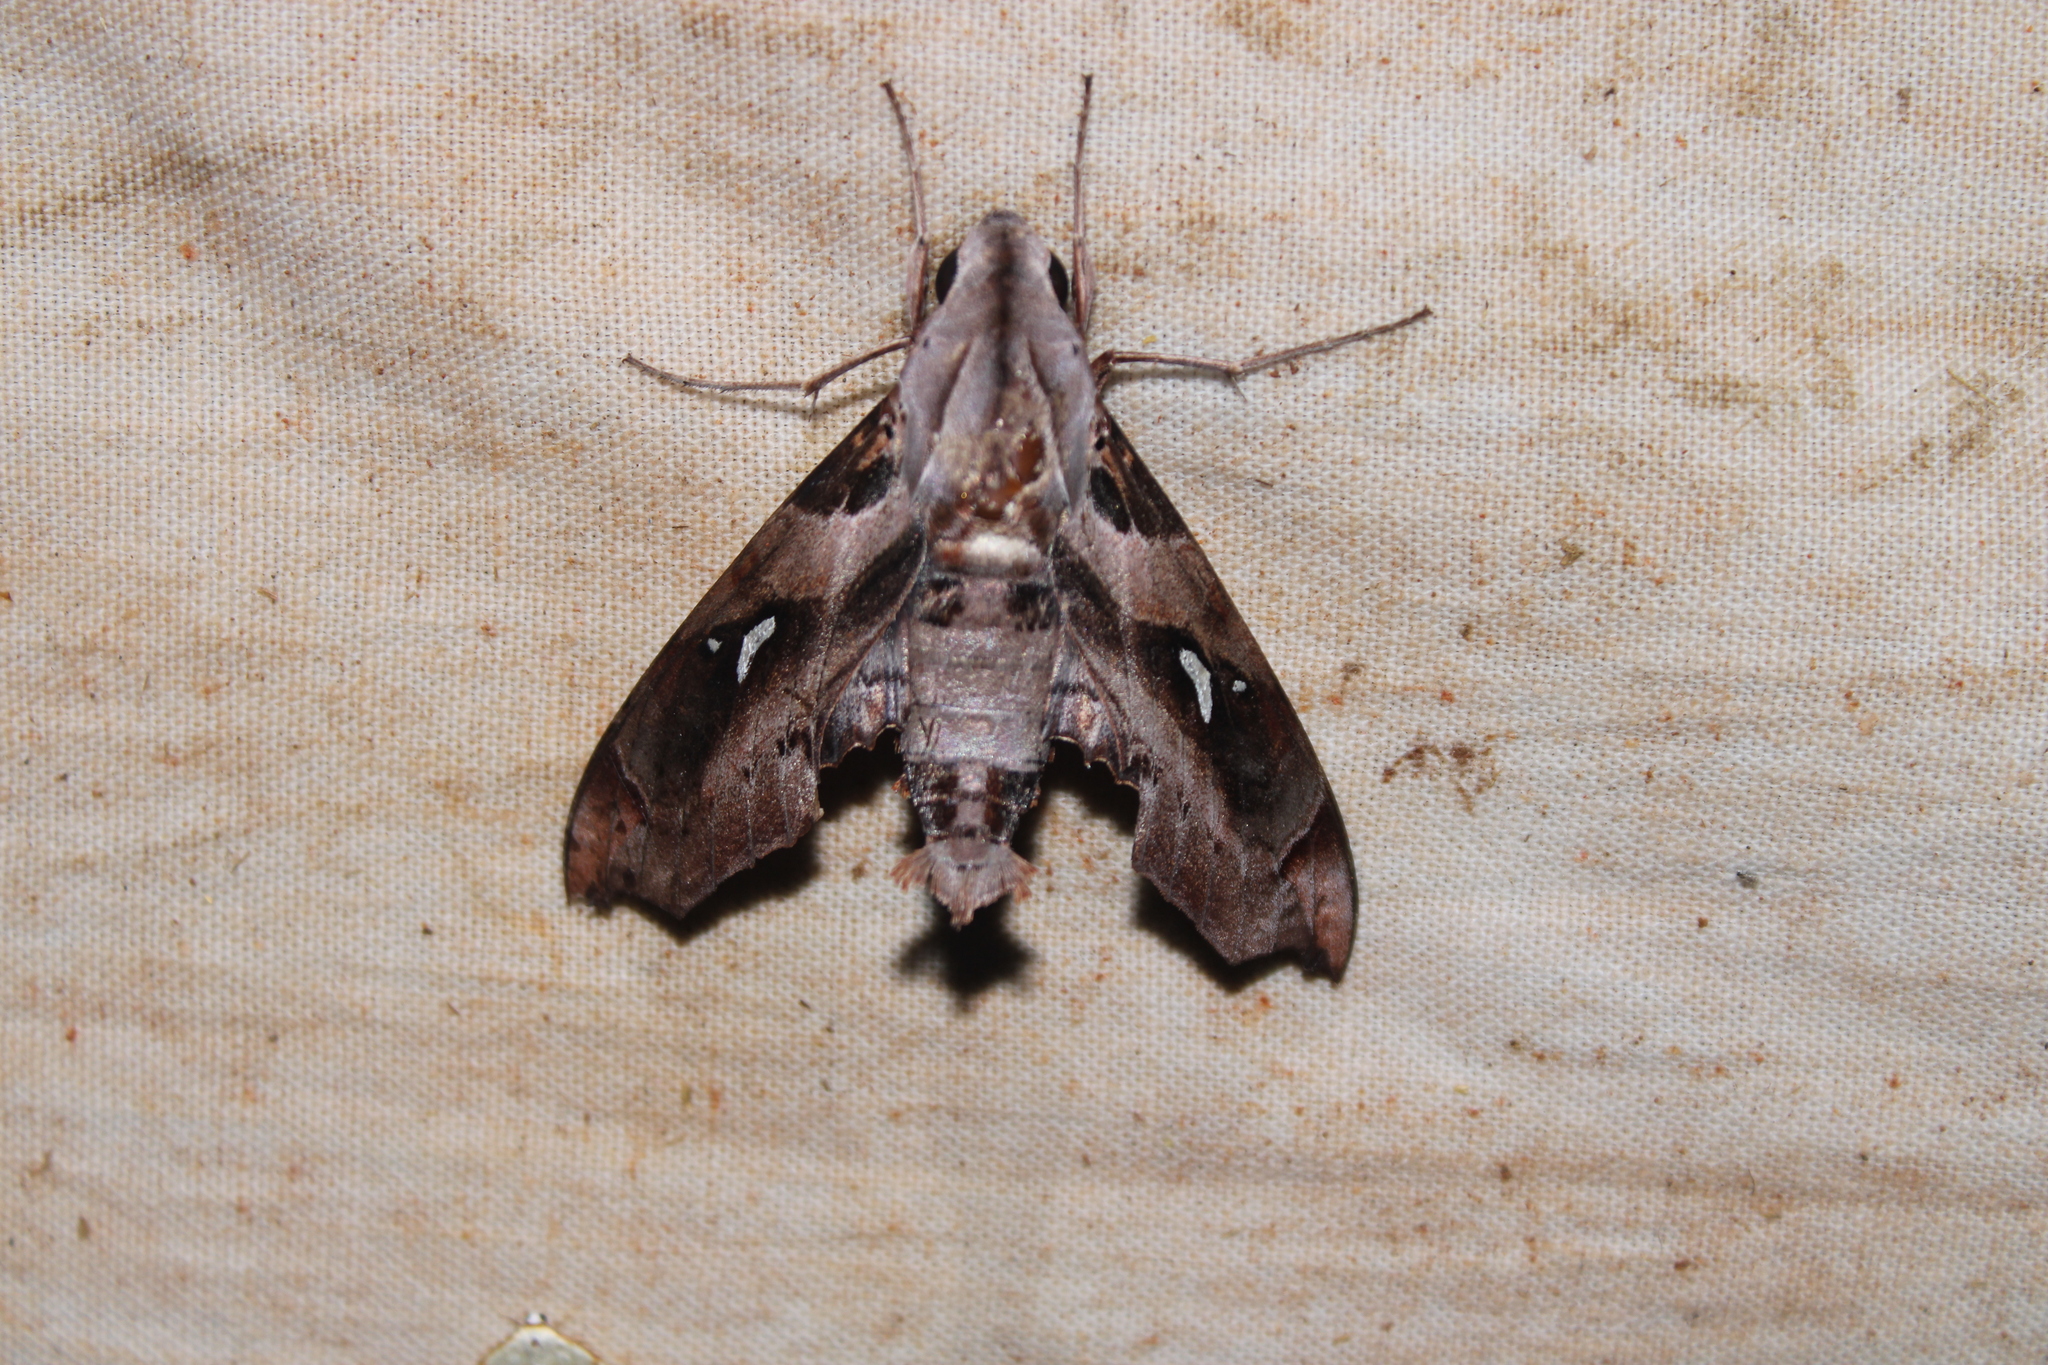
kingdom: Animalia
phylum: Arthropoda
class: Insecta
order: Lepidoptera
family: Sphingidae
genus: Madoryx
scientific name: Madoryx plutonius
